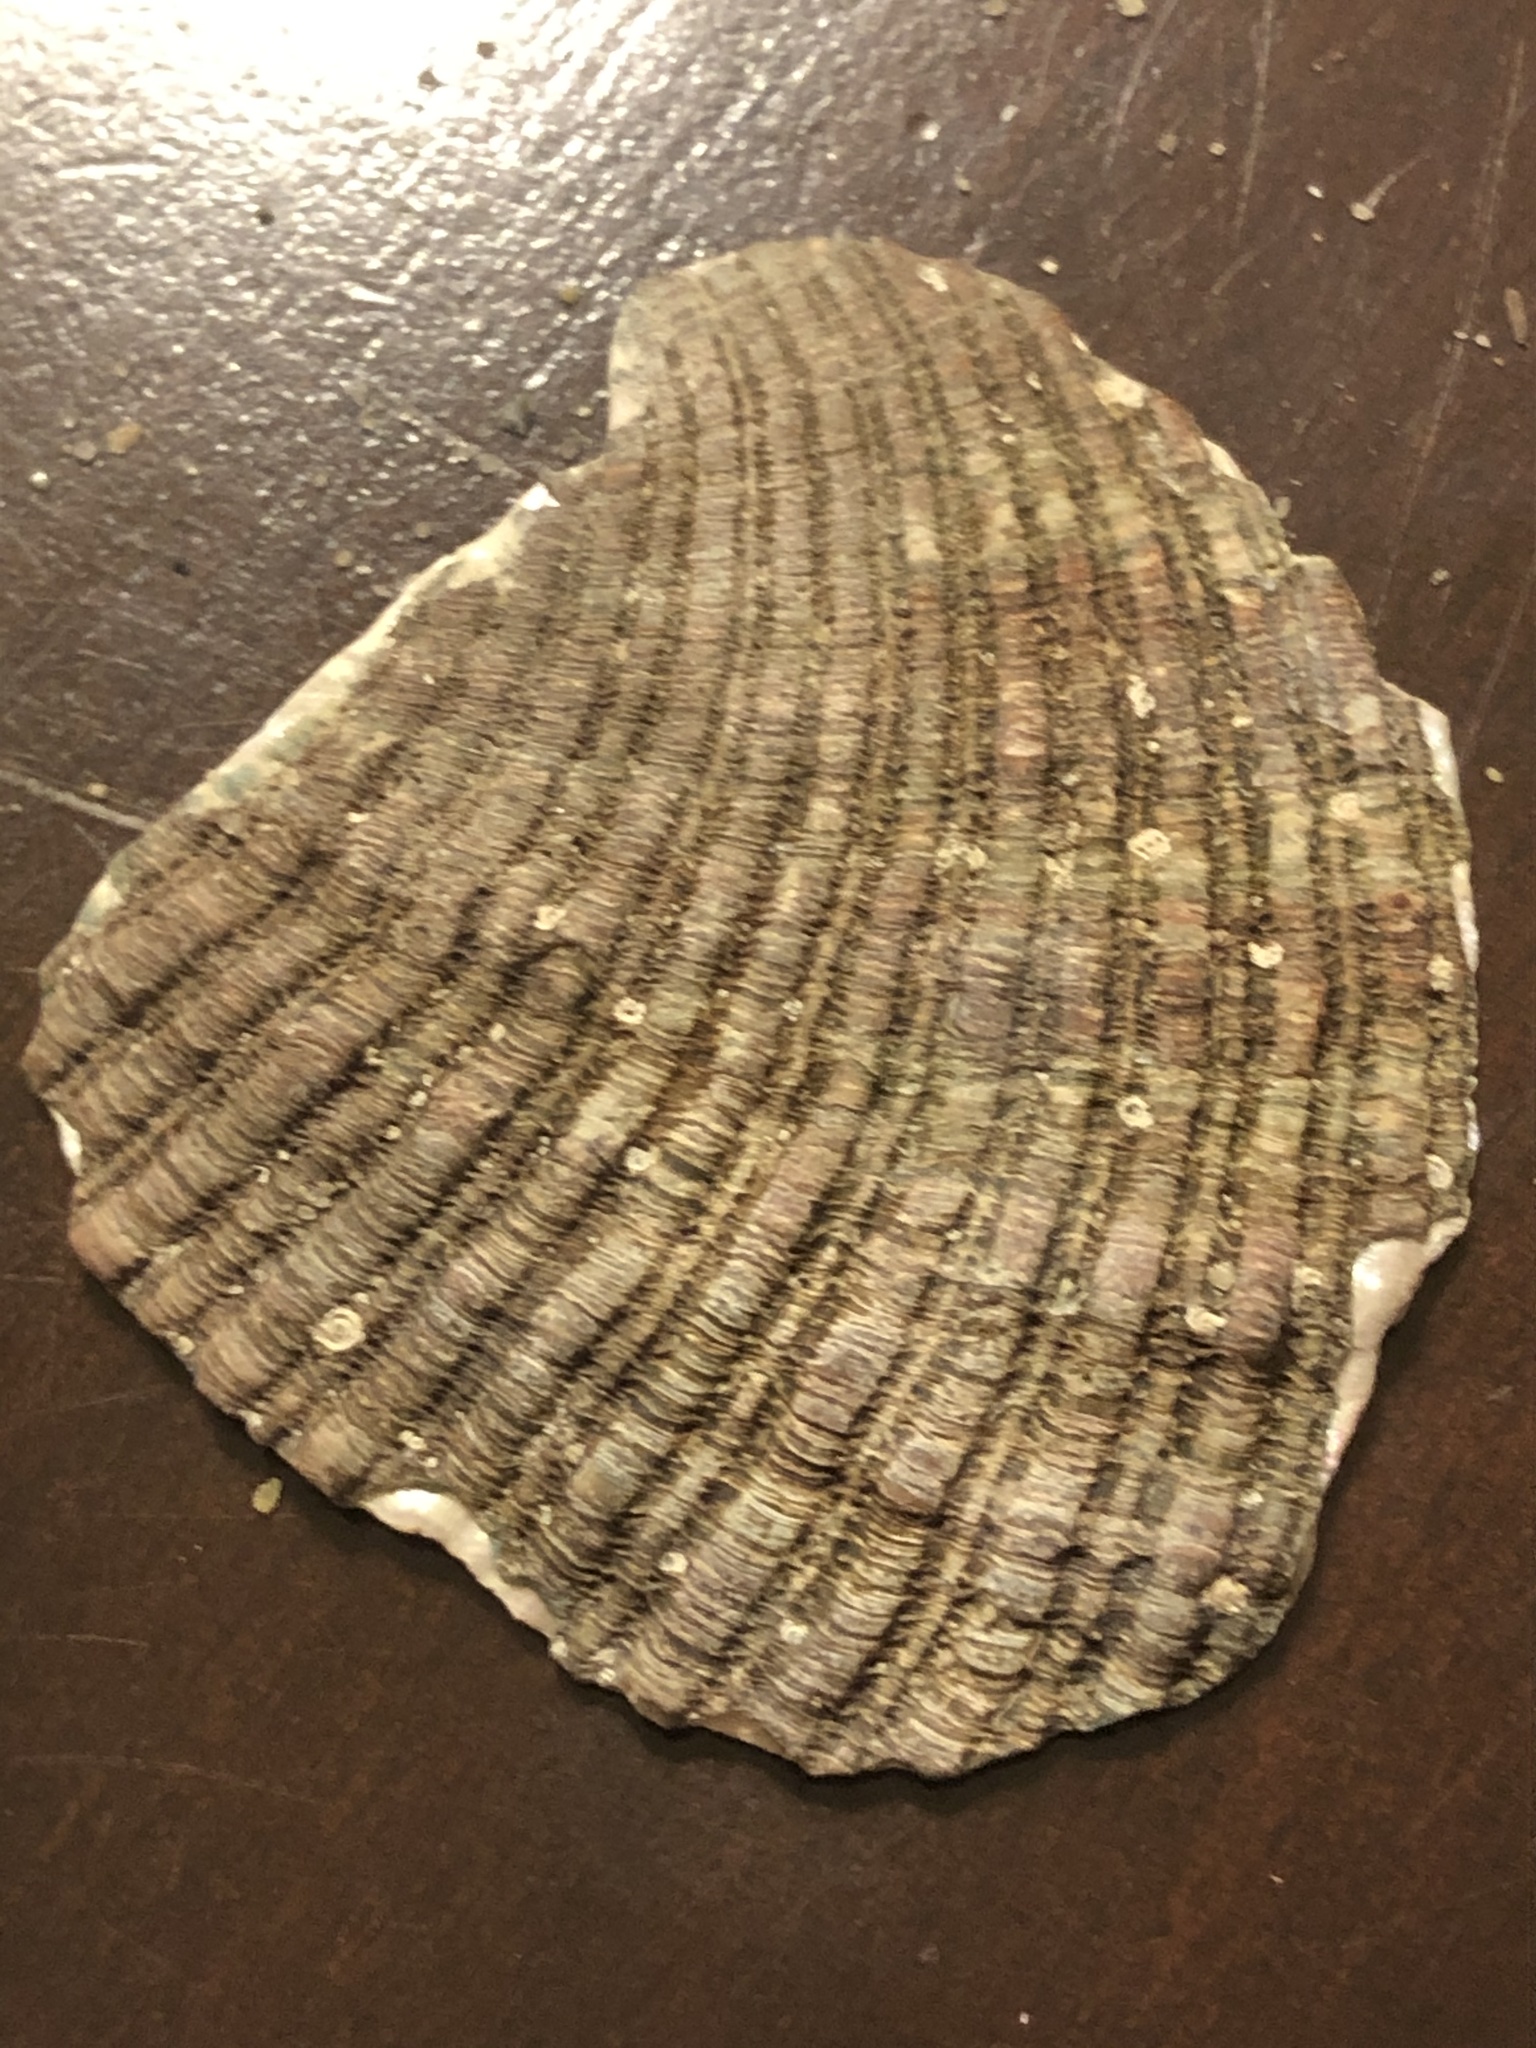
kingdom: Animalia
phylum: Mollusca
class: Gastropoda
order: Lepetellida
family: Haliotidae
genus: Haliotis
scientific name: Haliotis fulgens
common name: Green abalone
